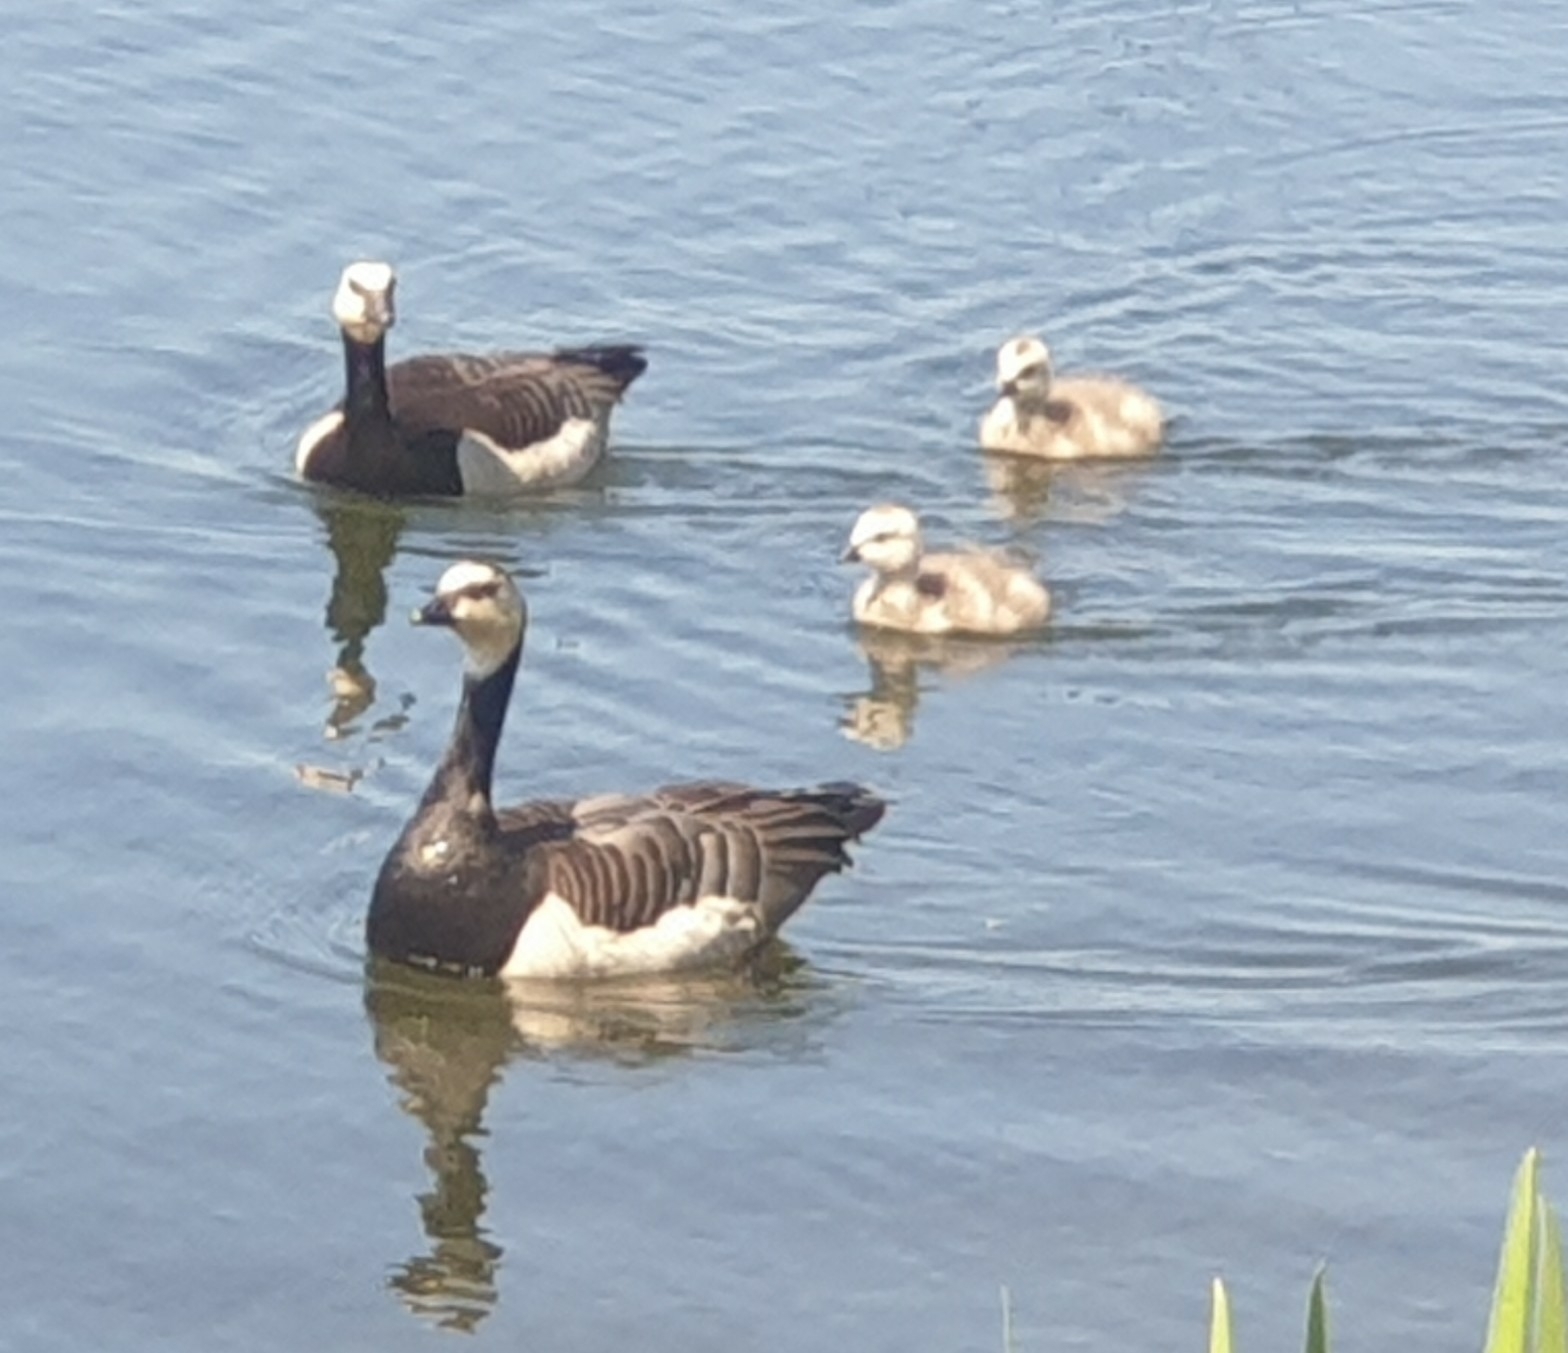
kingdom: Animalia
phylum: Chordata
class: Aves
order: Anseriformes
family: Anatidae
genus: Branta
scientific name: Branta leucopsis
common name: Barnacle goose
